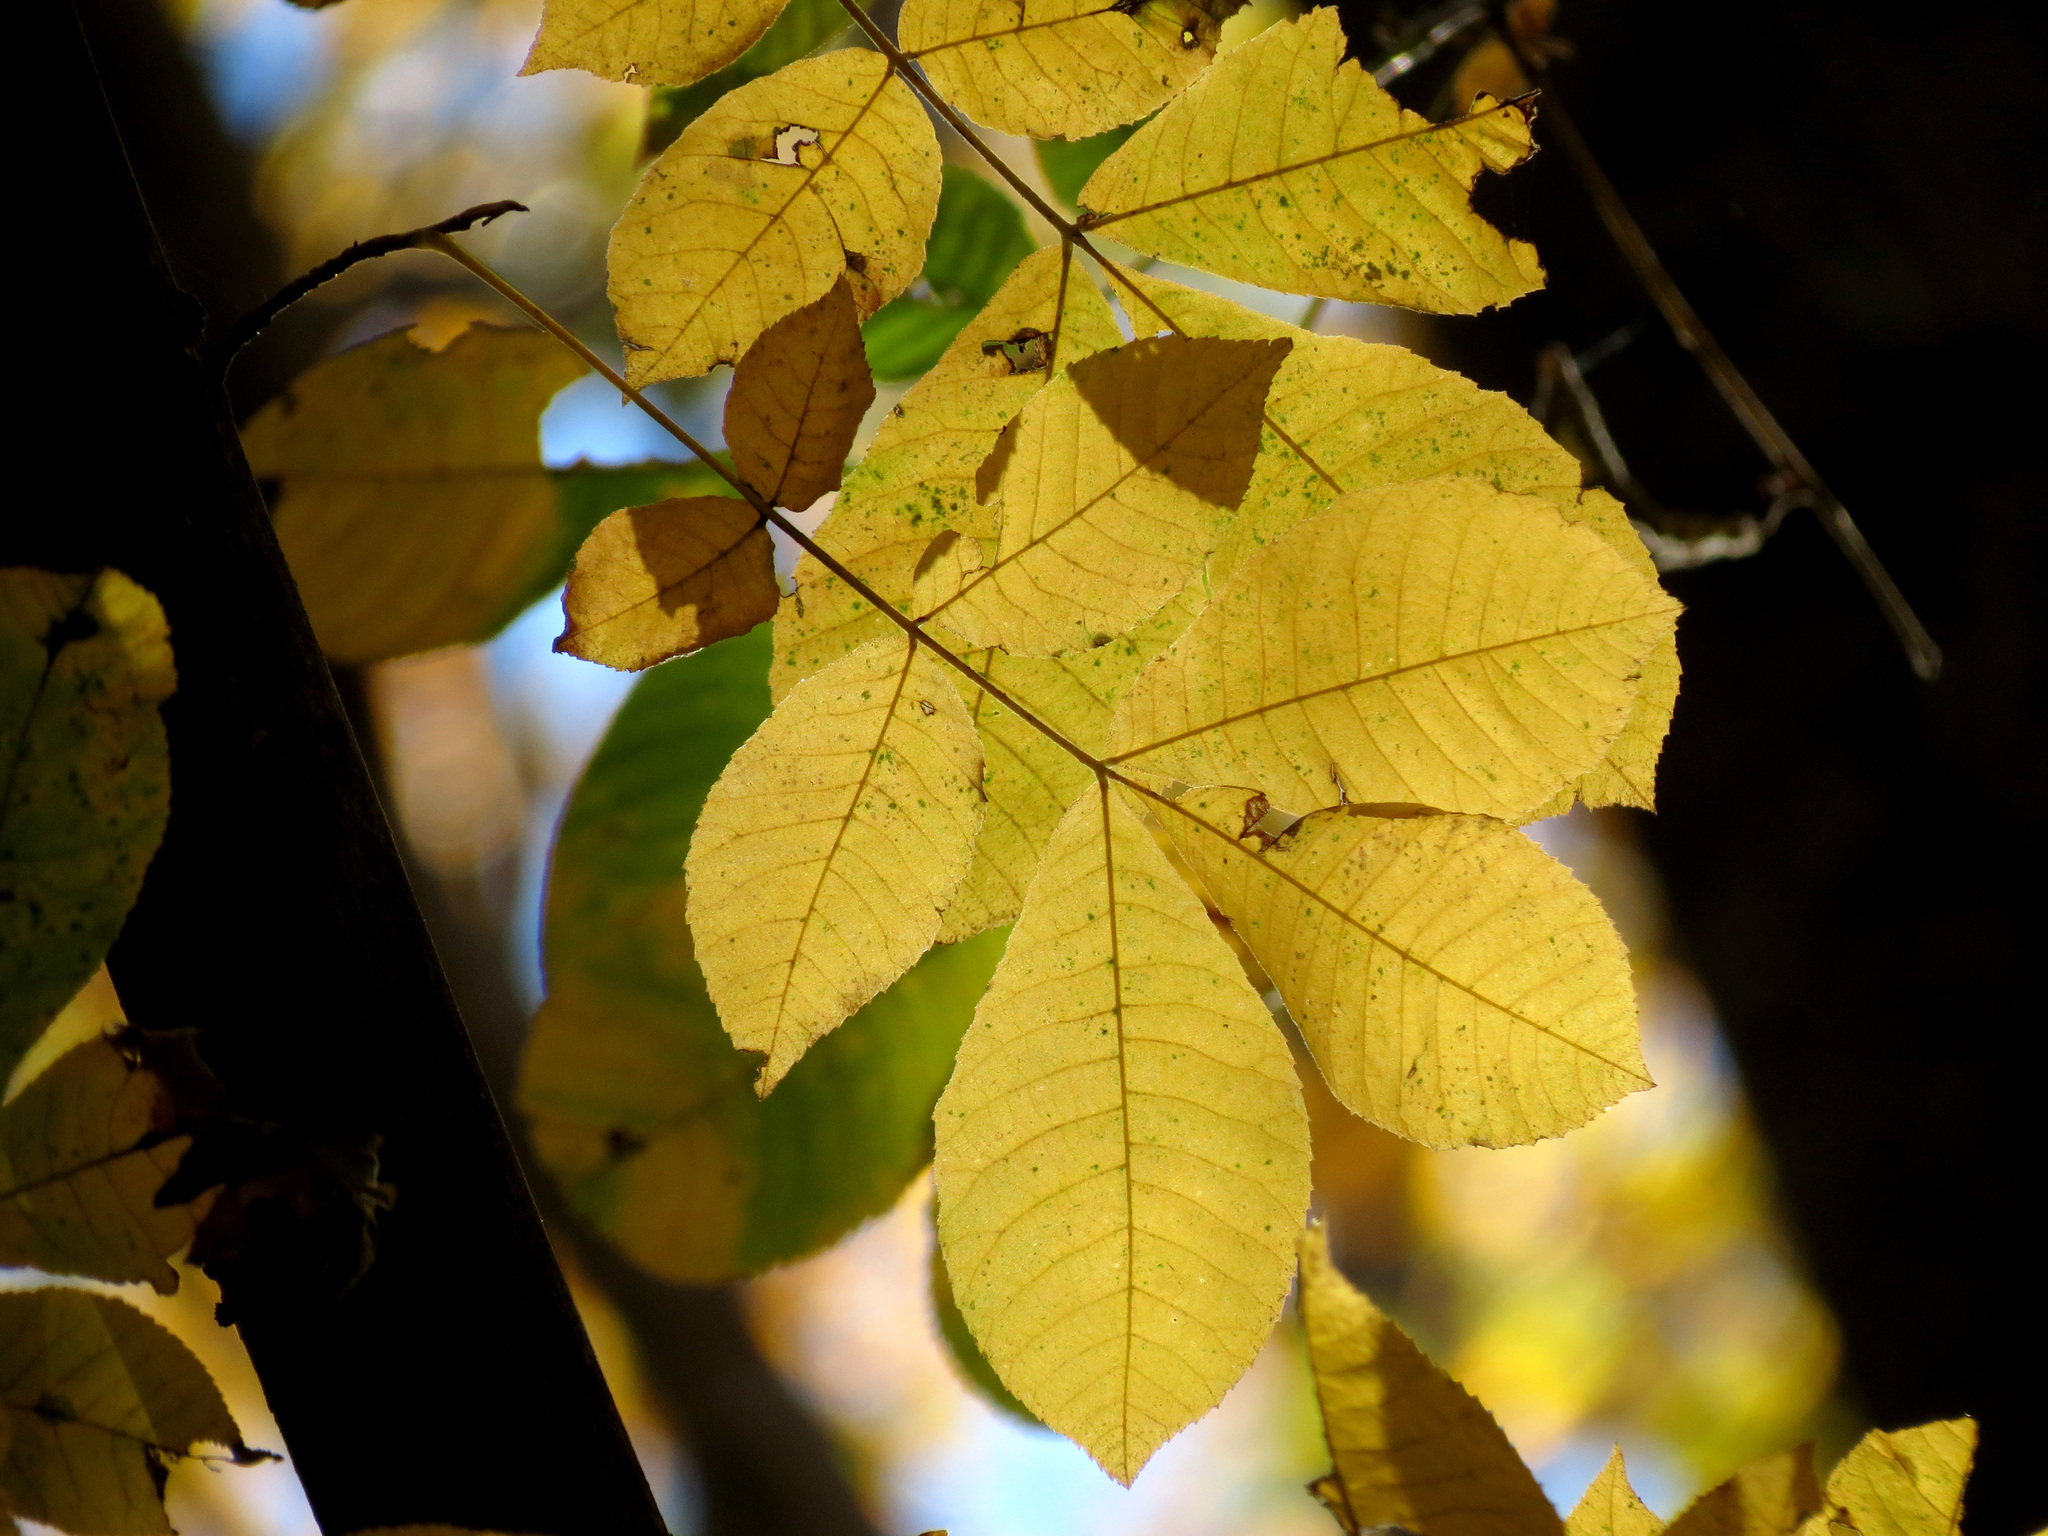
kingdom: Plantae
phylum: Tracheophyta
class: Magnoliopsida
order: Fagales
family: Juglandaceae
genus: Carya
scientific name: Carya cordiformis
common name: Bitternut hickory
